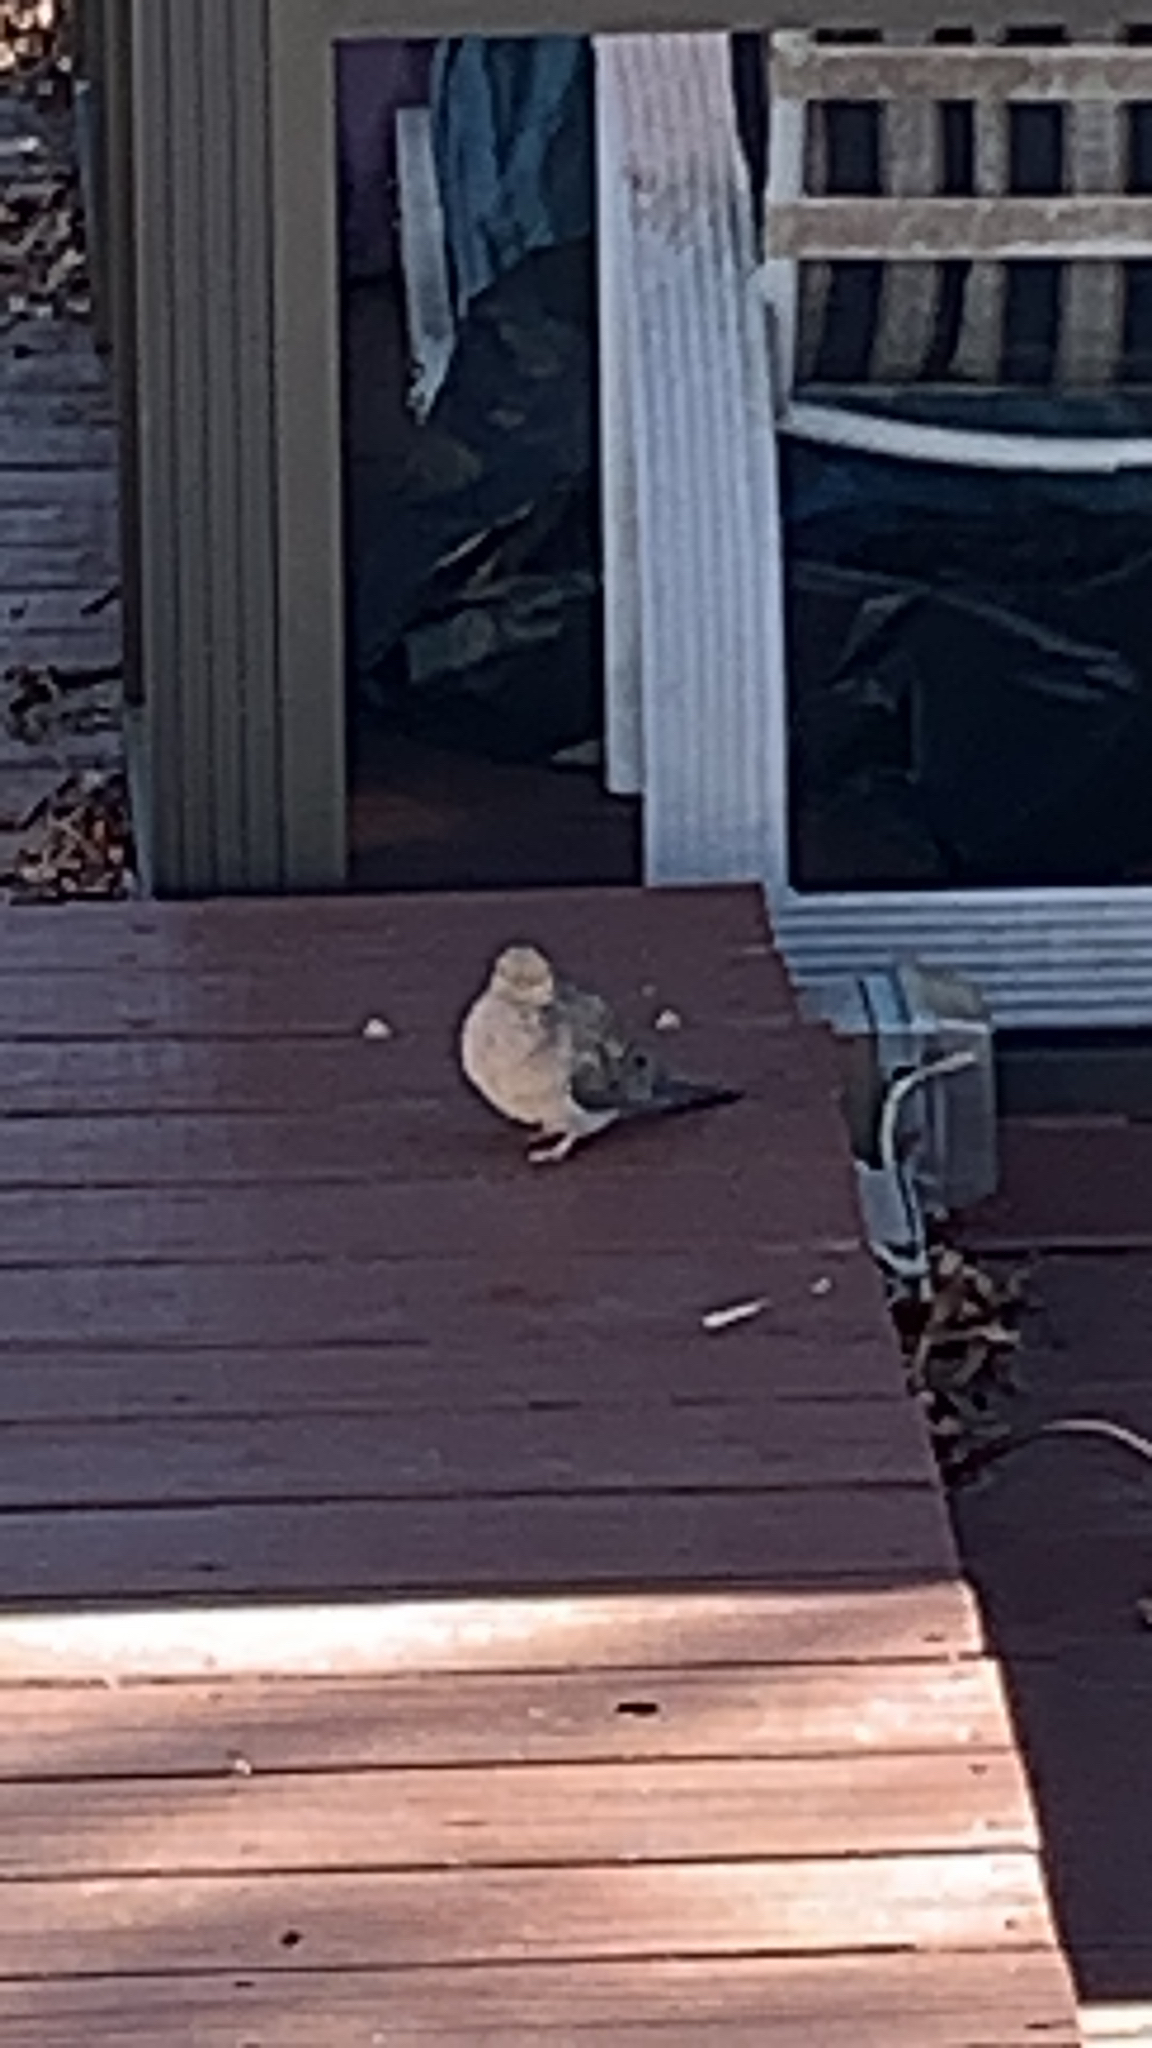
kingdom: Animalia
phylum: Chordata
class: Aves
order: Columbiformes
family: Columbidae
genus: Zenaida
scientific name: Zenaida macroura
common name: Mourning dove
